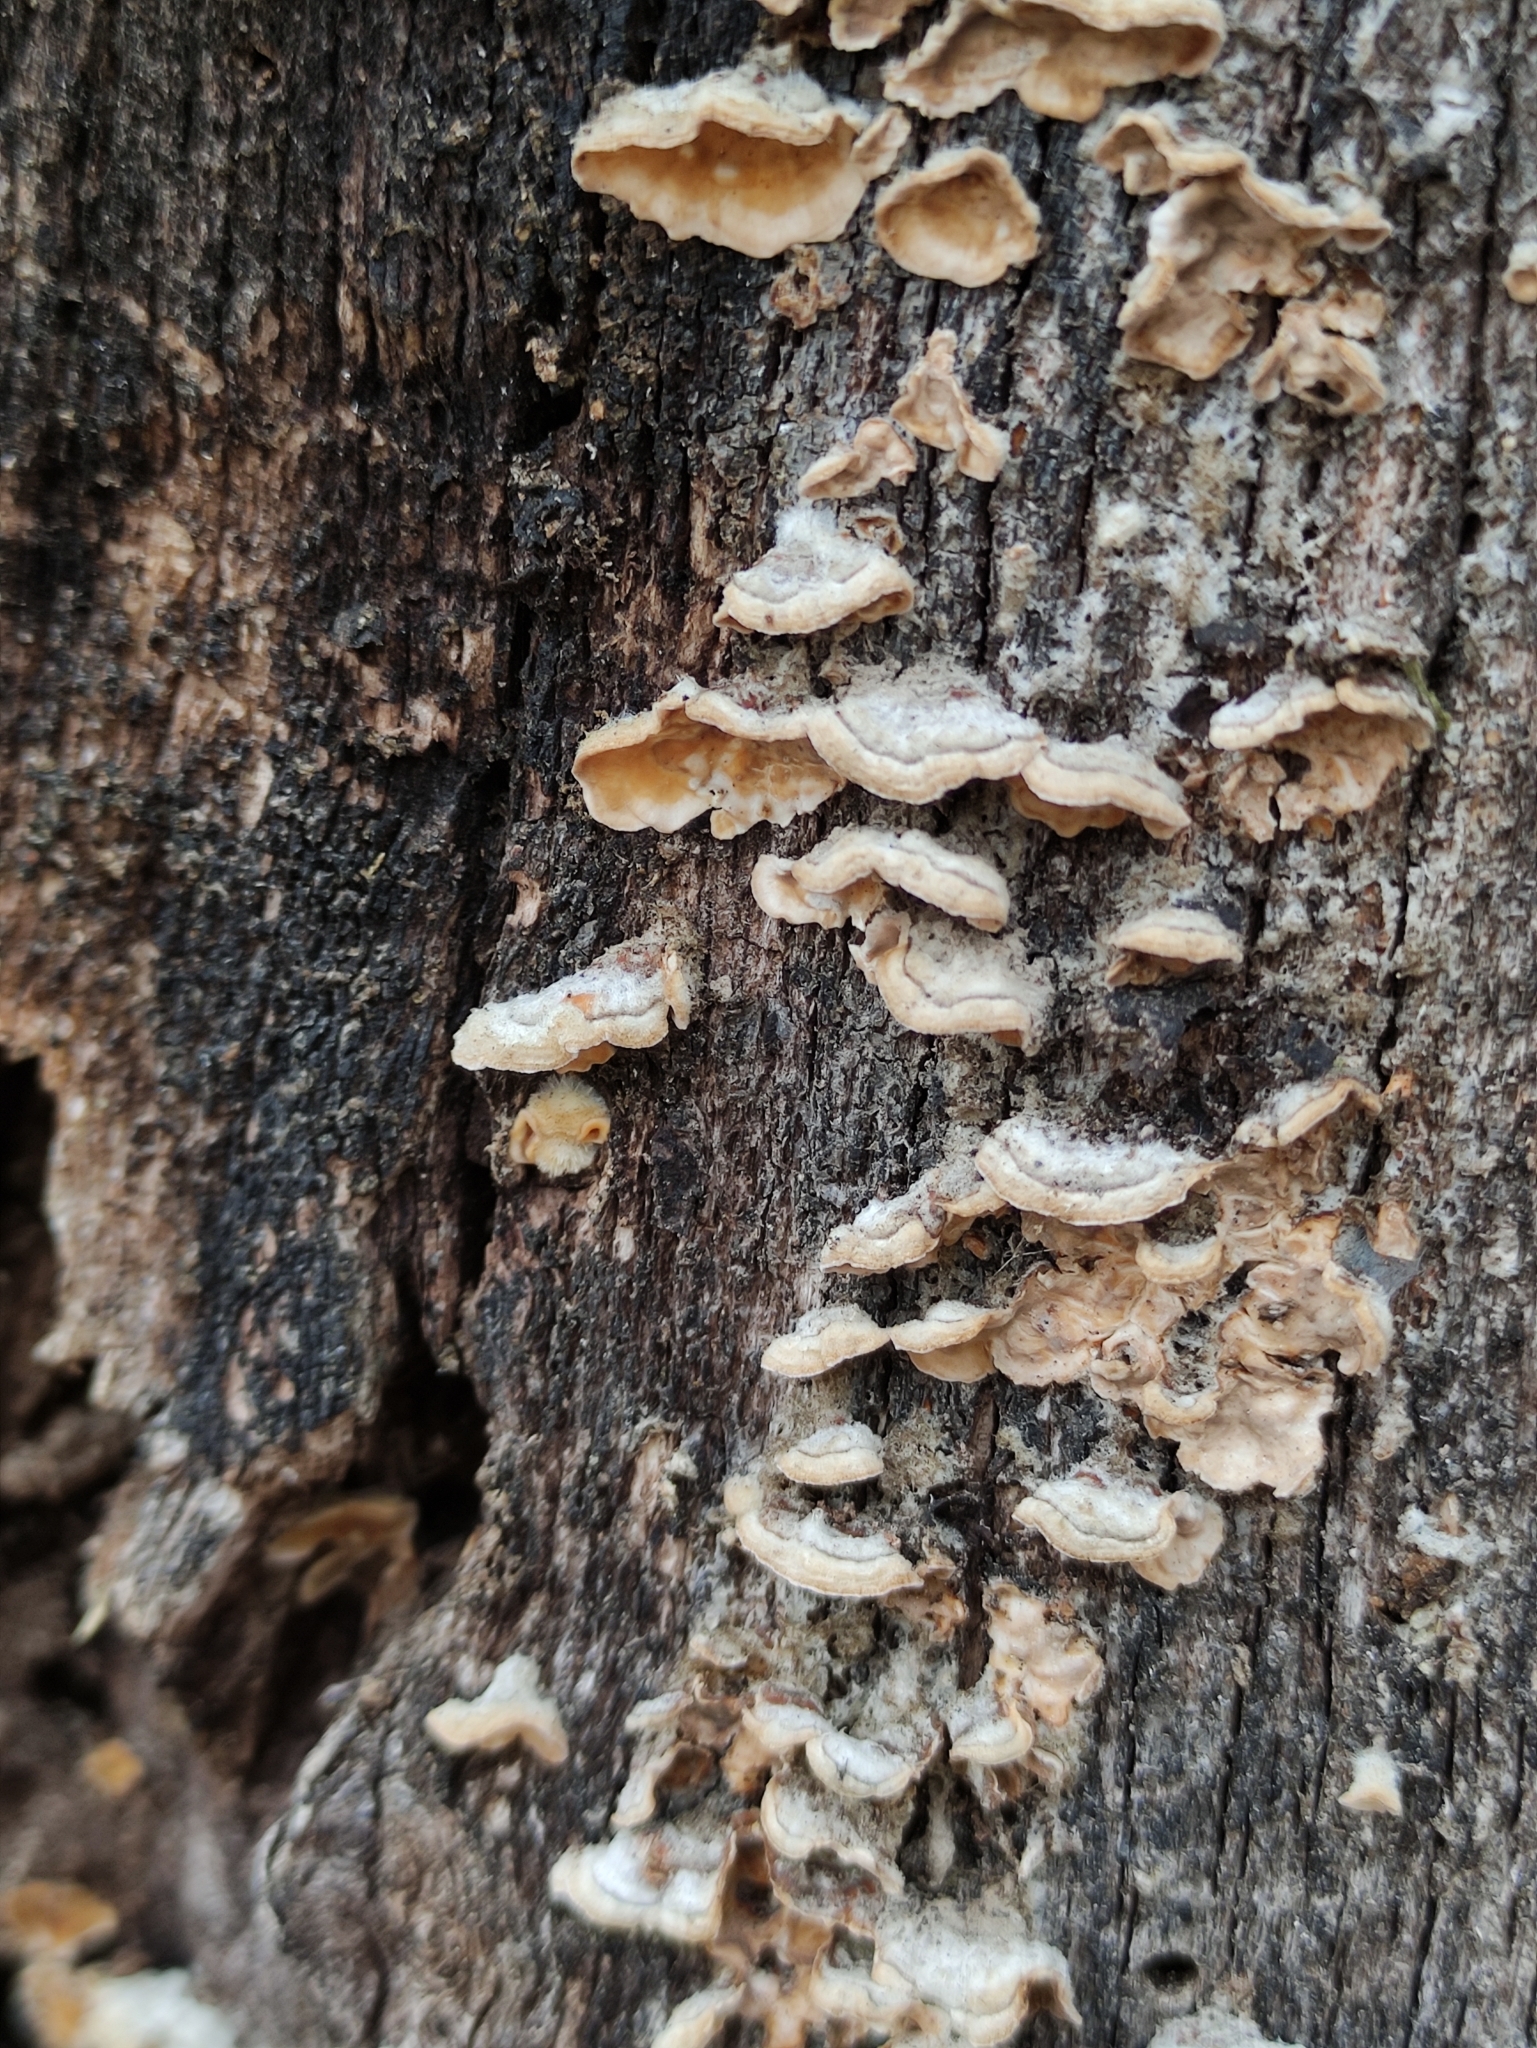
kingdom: Fungi
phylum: Basidiomycota
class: Agaricomycetes
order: Russulales
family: Stereaceae
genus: Stereum
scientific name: Stereum hirsutum
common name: Hairy curtain crust
